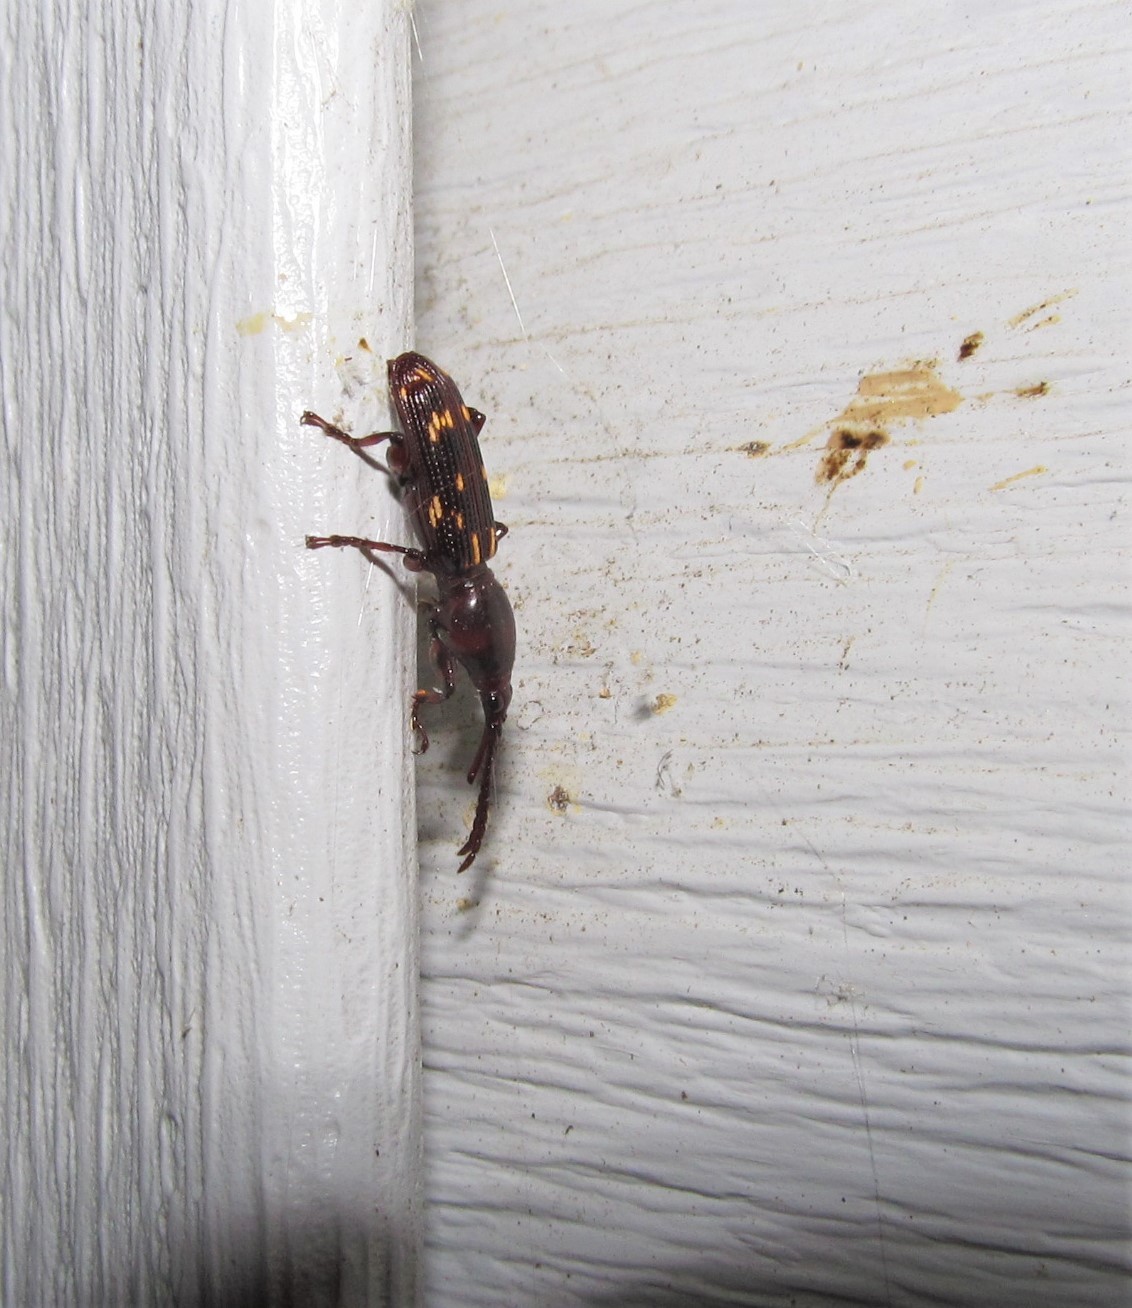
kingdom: Animalia
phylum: Arthropoda
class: Insecta
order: Coleoptera
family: Brentidae
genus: Arrenodes
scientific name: Arrenodes minutus
